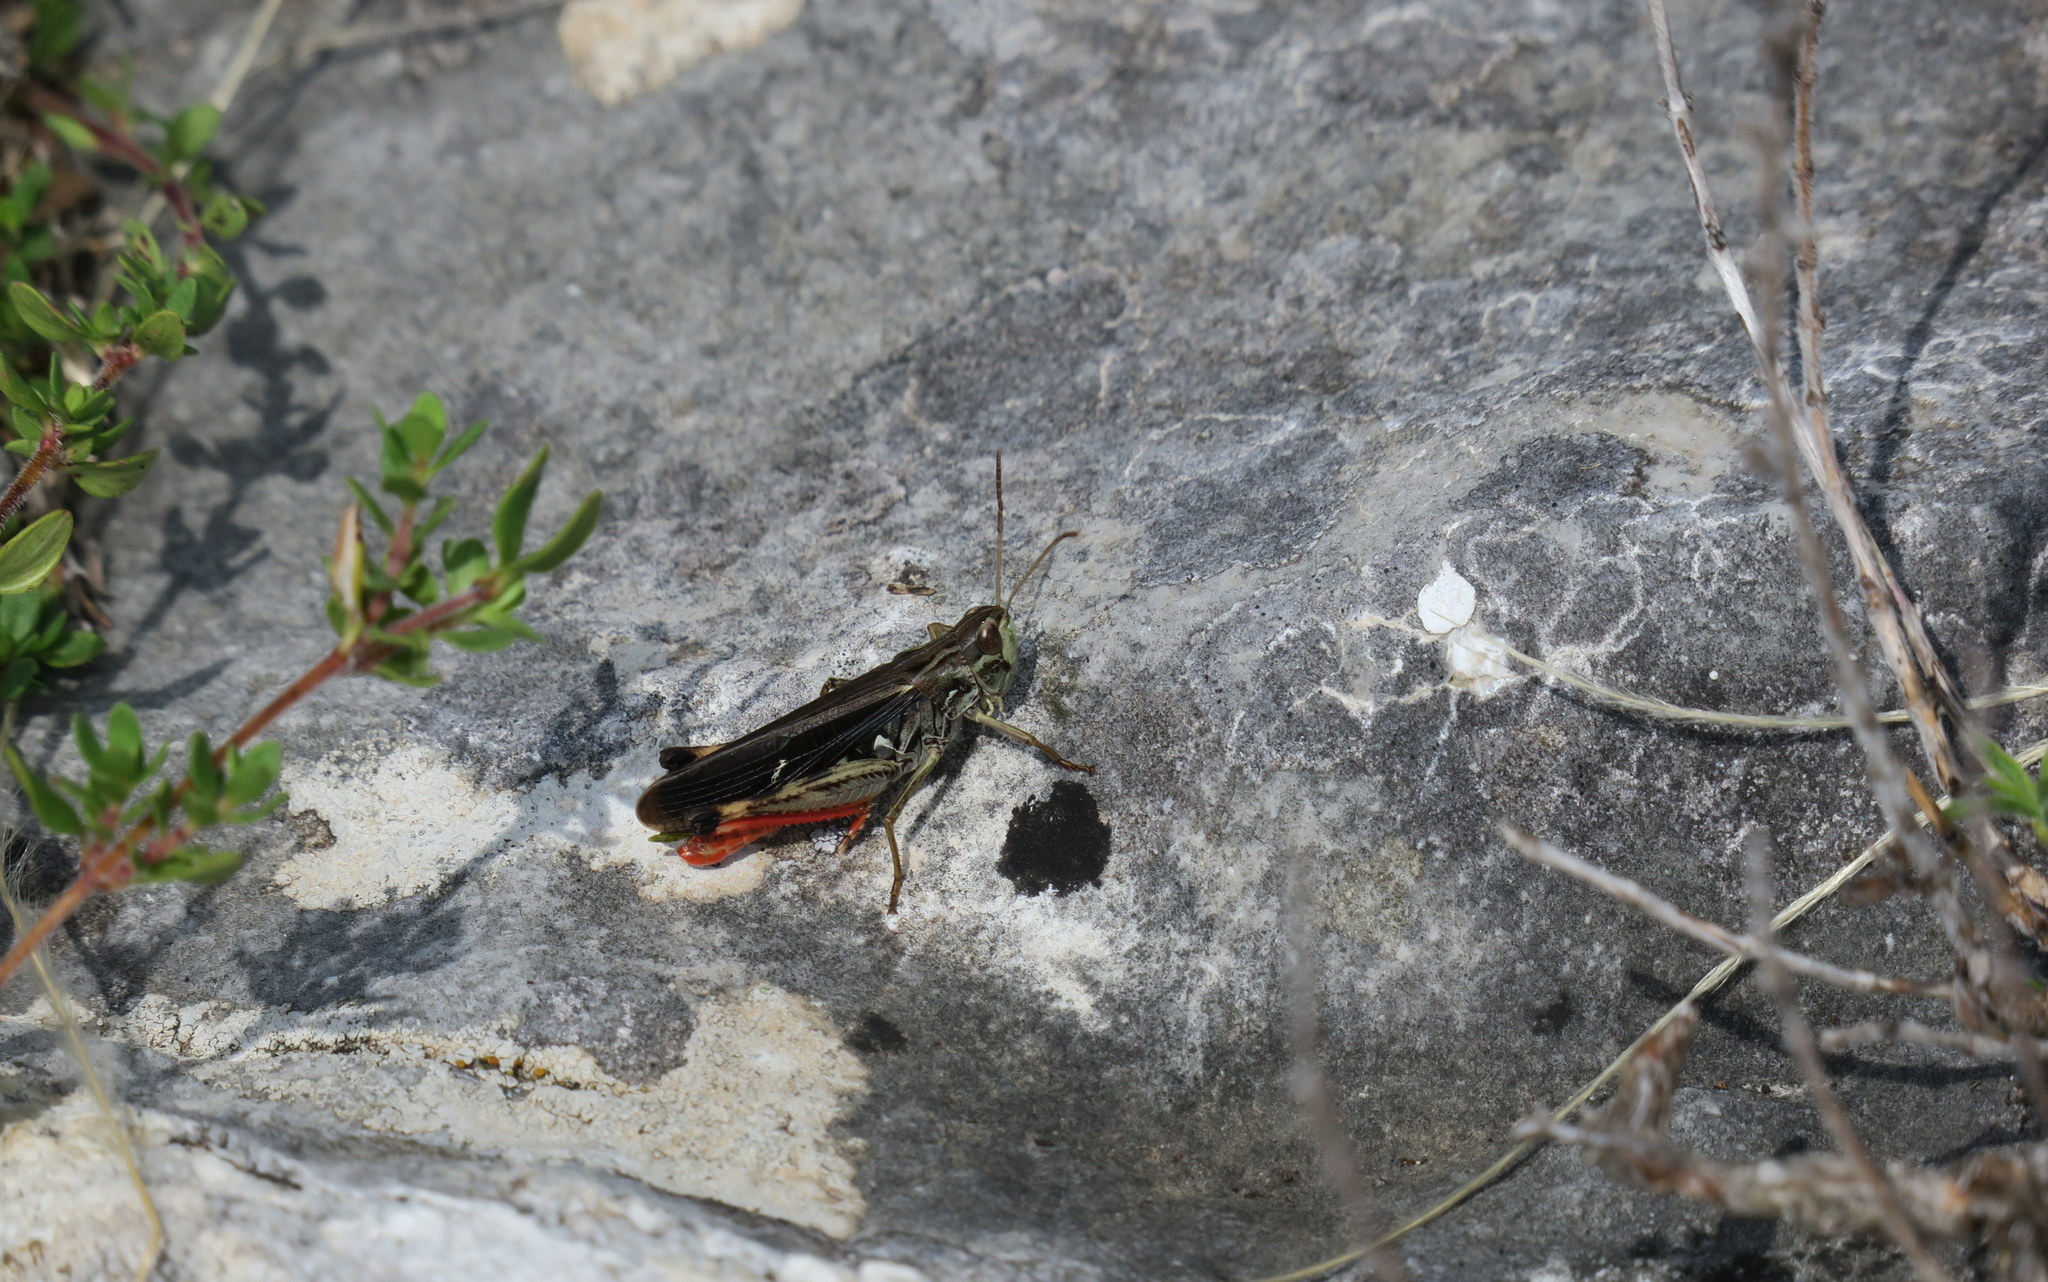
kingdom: Animalia
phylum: Arthropoda
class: Insecta
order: Orthoptera
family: Acrididae
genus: Stenobothrus
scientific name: Stenobothrus rubicundulus
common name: Wing-buzzing grasshopper
